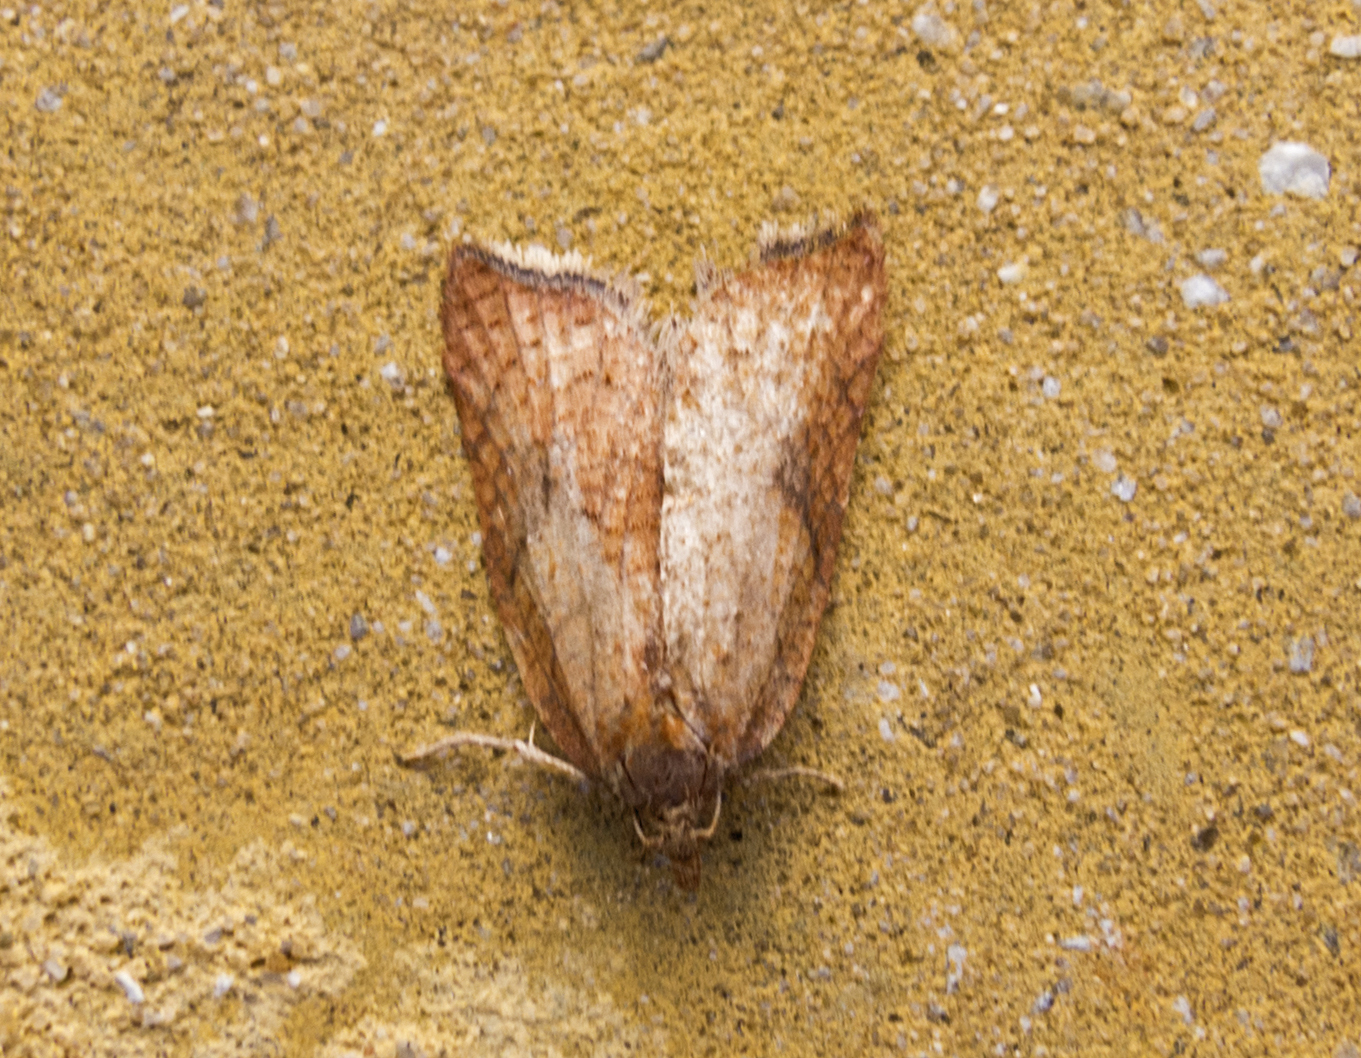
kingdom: Animalia
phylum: Arthropoda
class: Insecta
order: Lepidoptera
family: Tortricidae
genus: Acleris
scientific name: Acleris rhombana
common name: Tortricid moth
